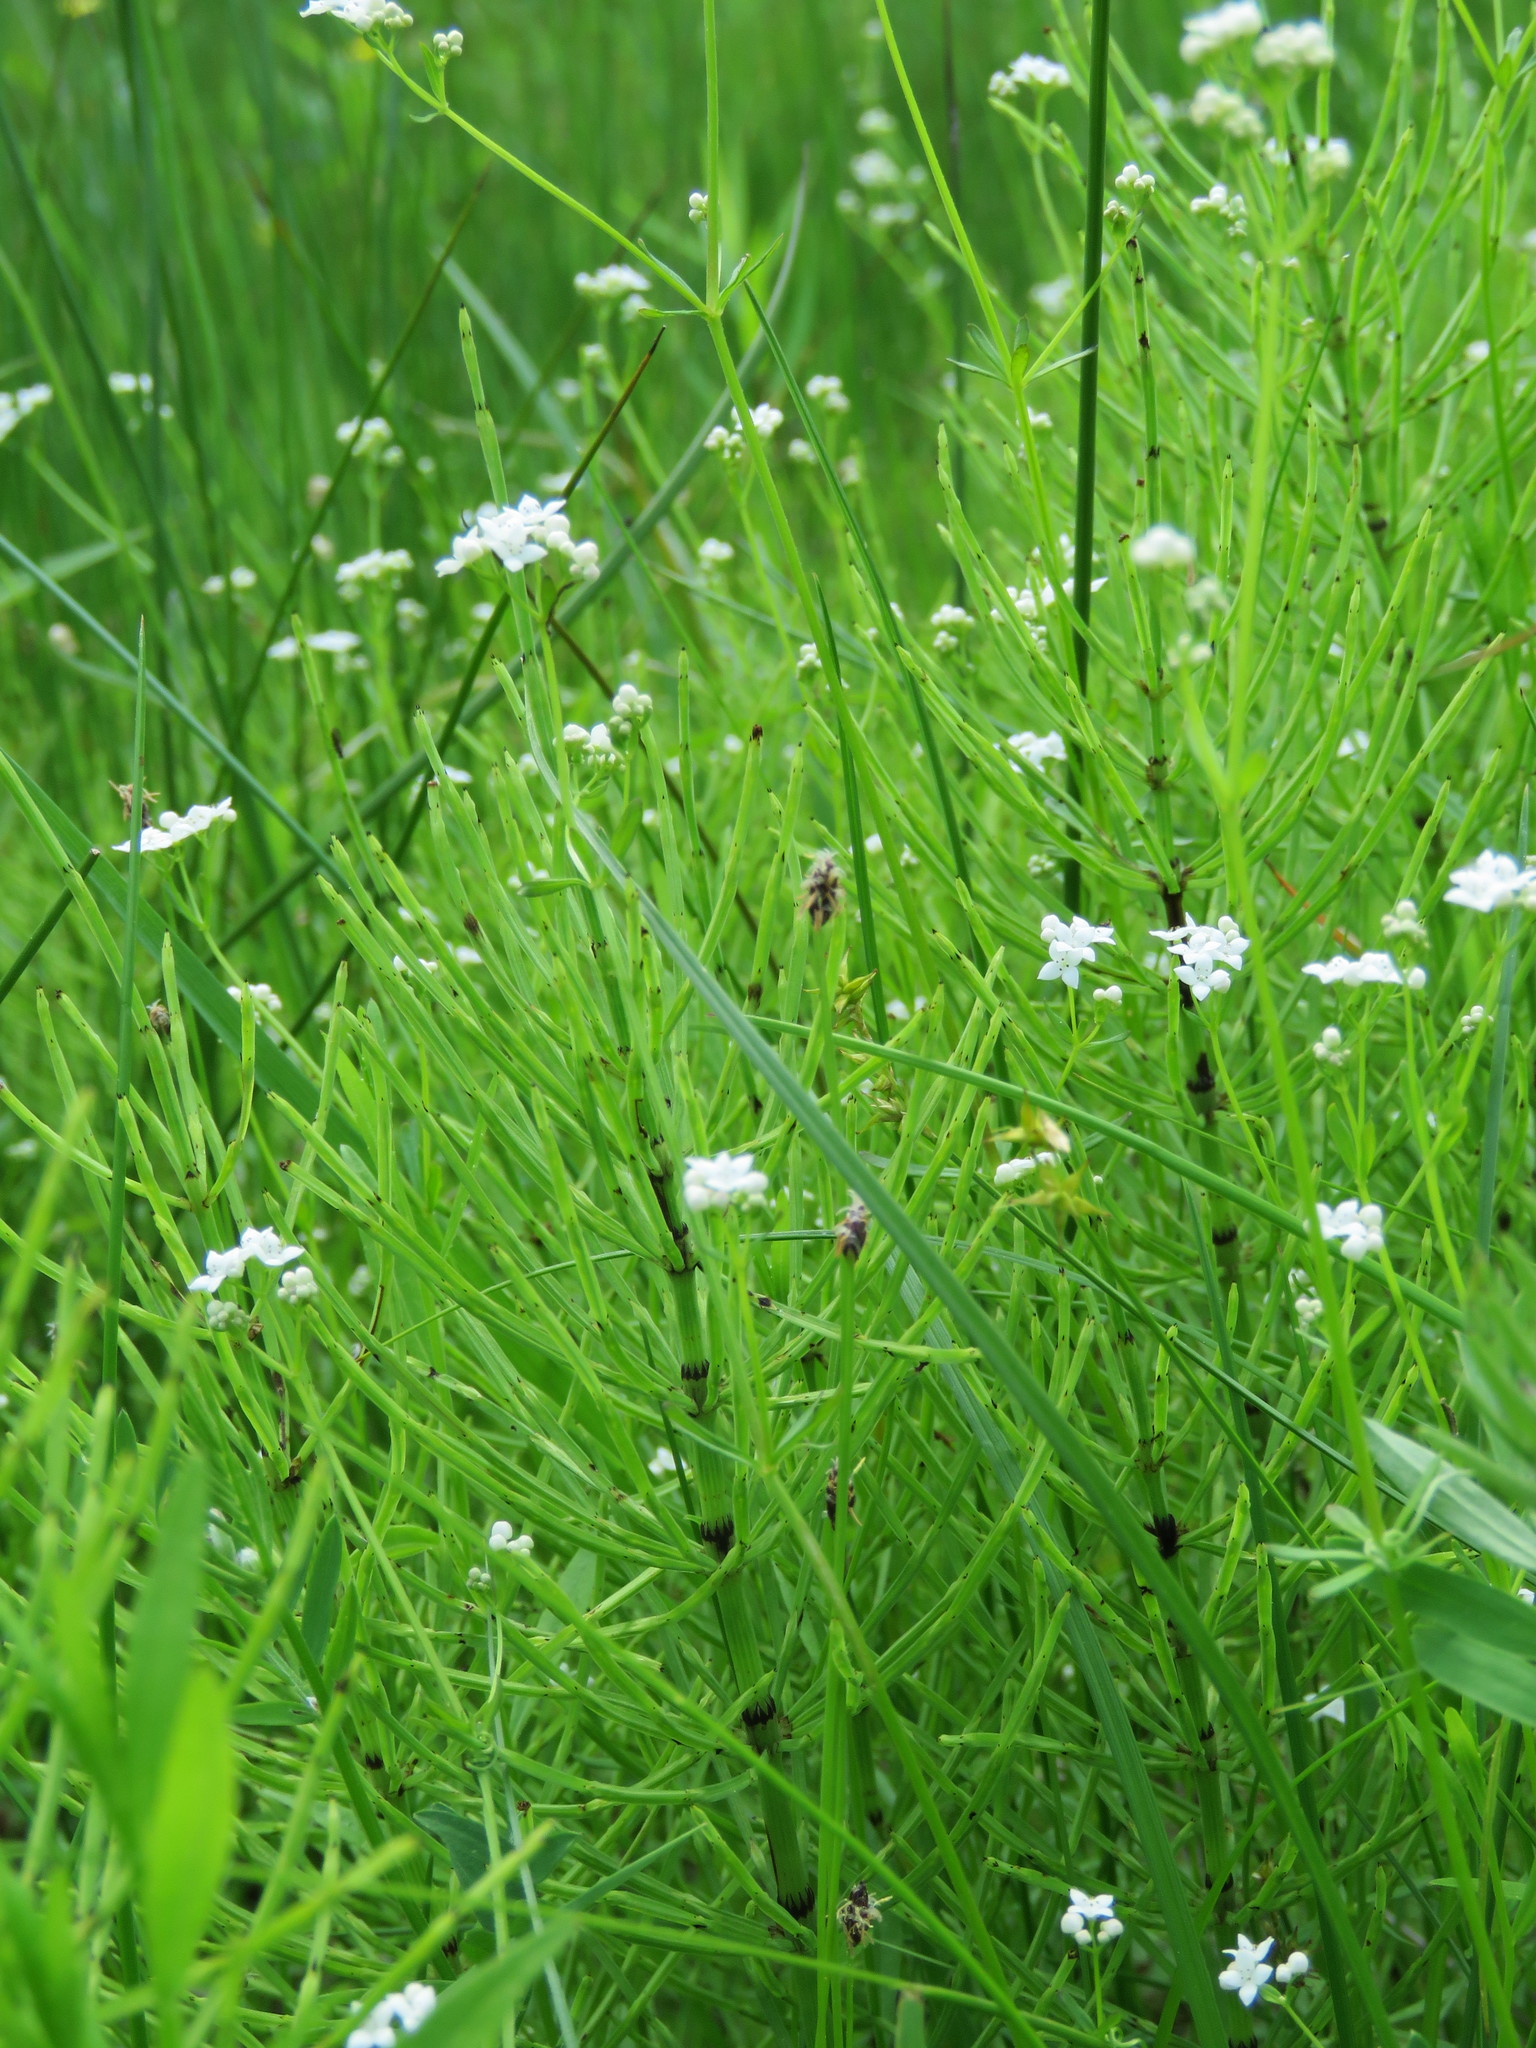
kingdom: Plantae
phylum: Tracheophyta
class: Magnoliopsida
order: Gentianales
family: Rubiaceae
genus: Galium
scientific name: Galium palustre
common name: Common marsh-bedstraw
